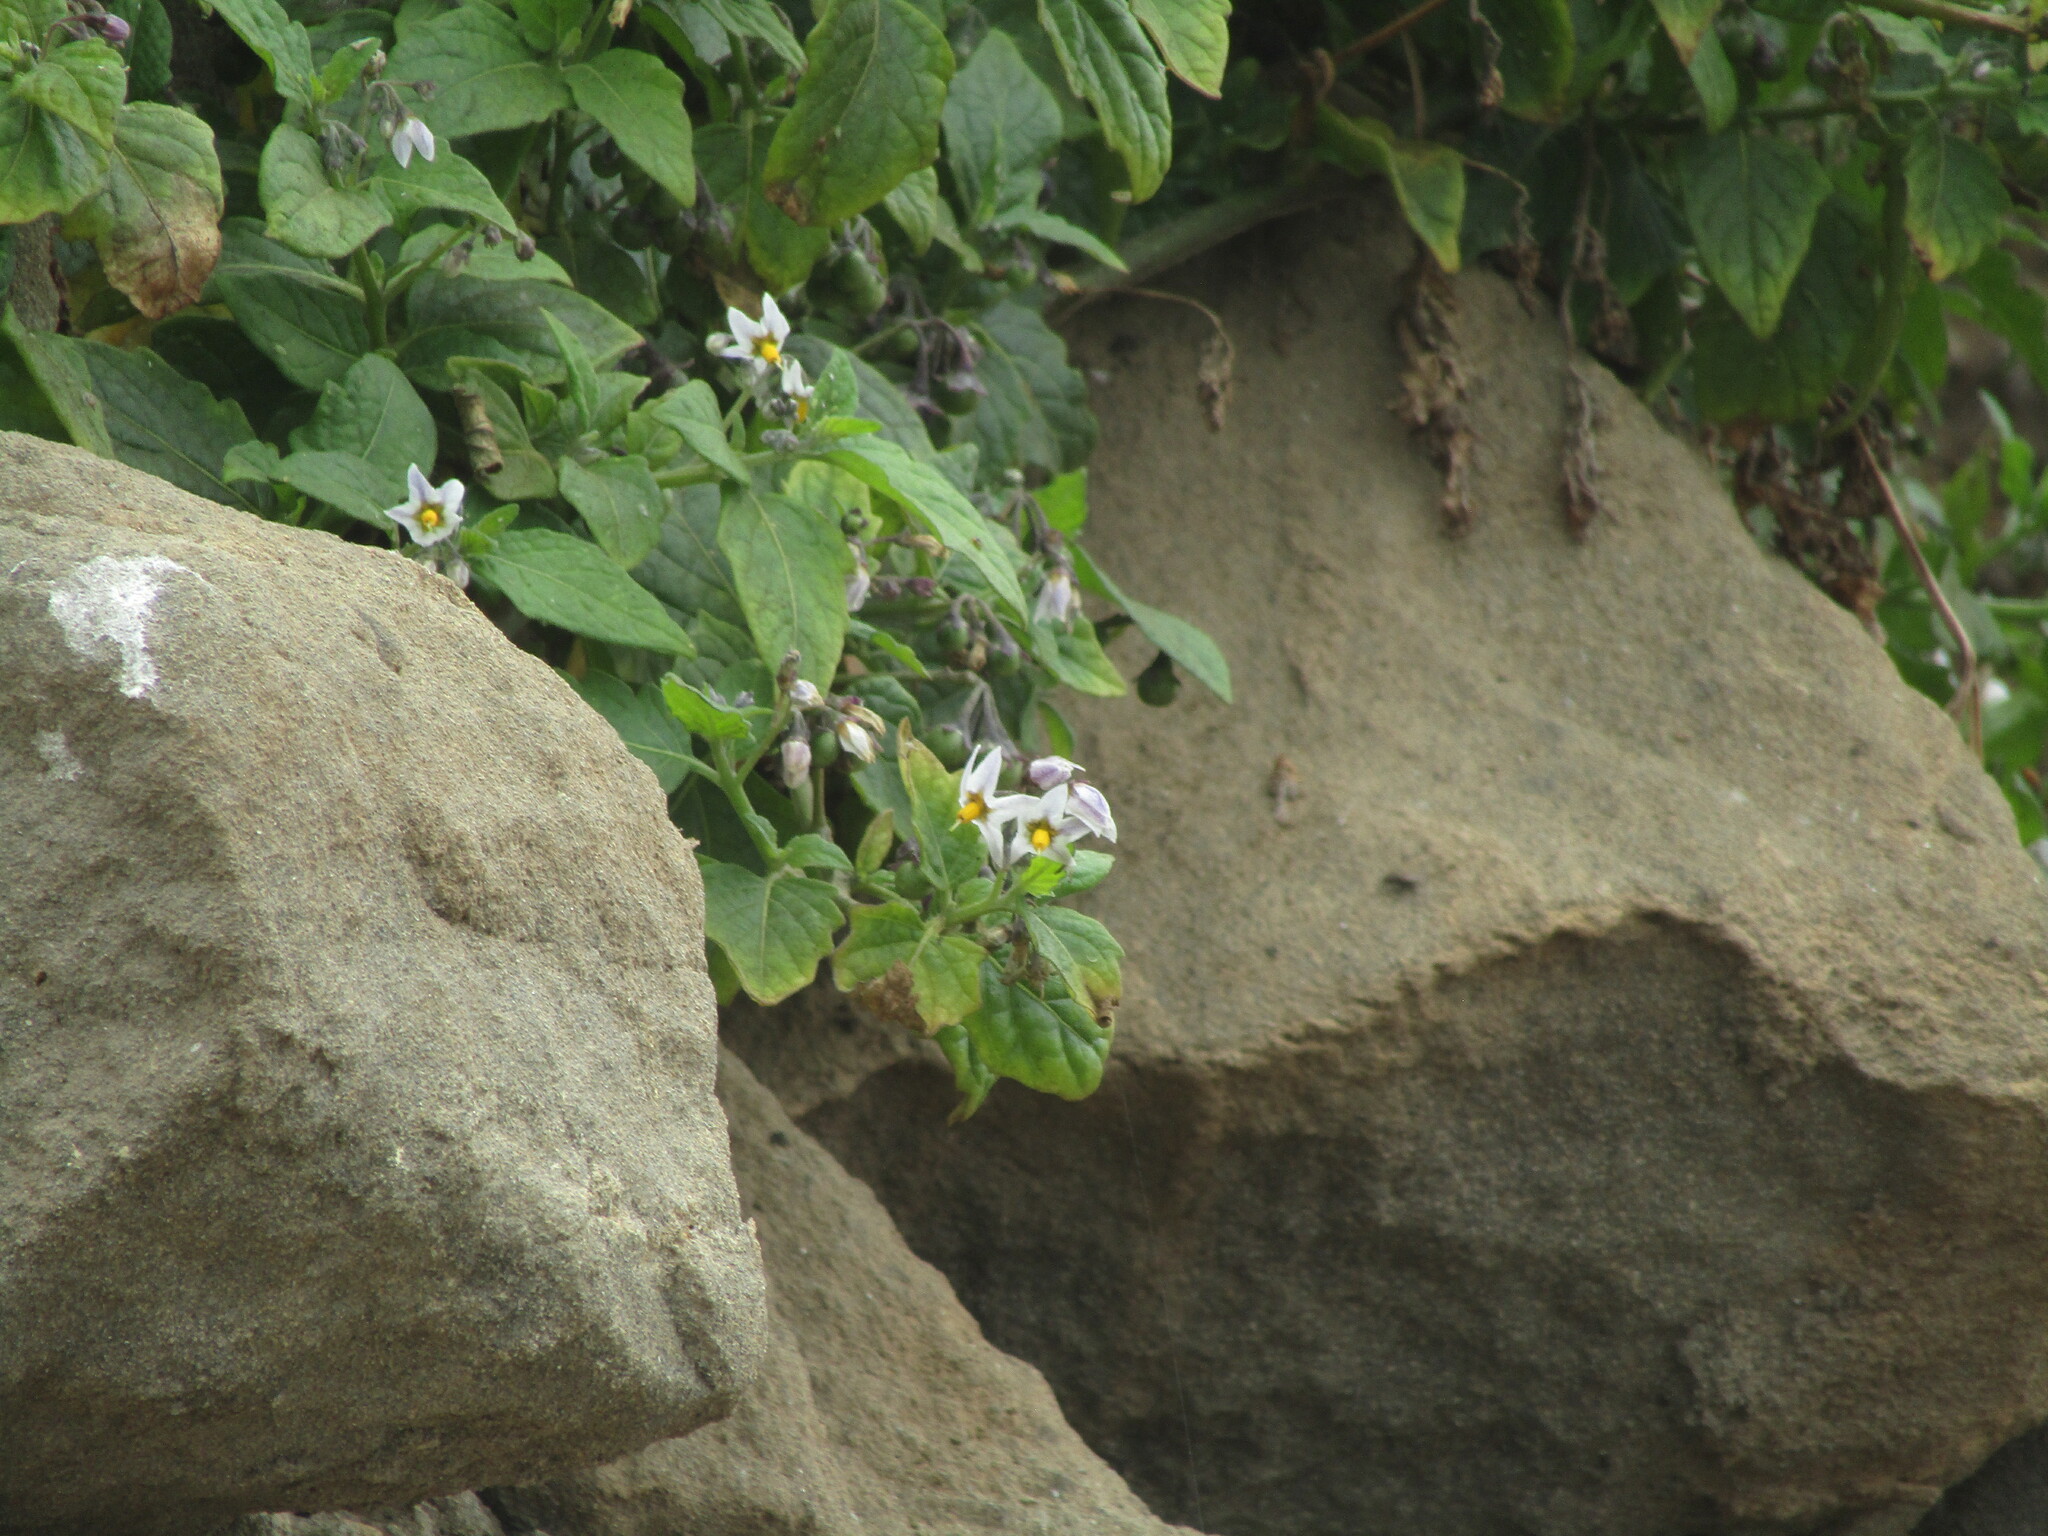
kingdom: Plantae
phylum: Tracheophyta
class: Magnoliopsida
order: Solanales
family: Solanaceae
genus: Solanum
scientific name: Solanum furcatum
